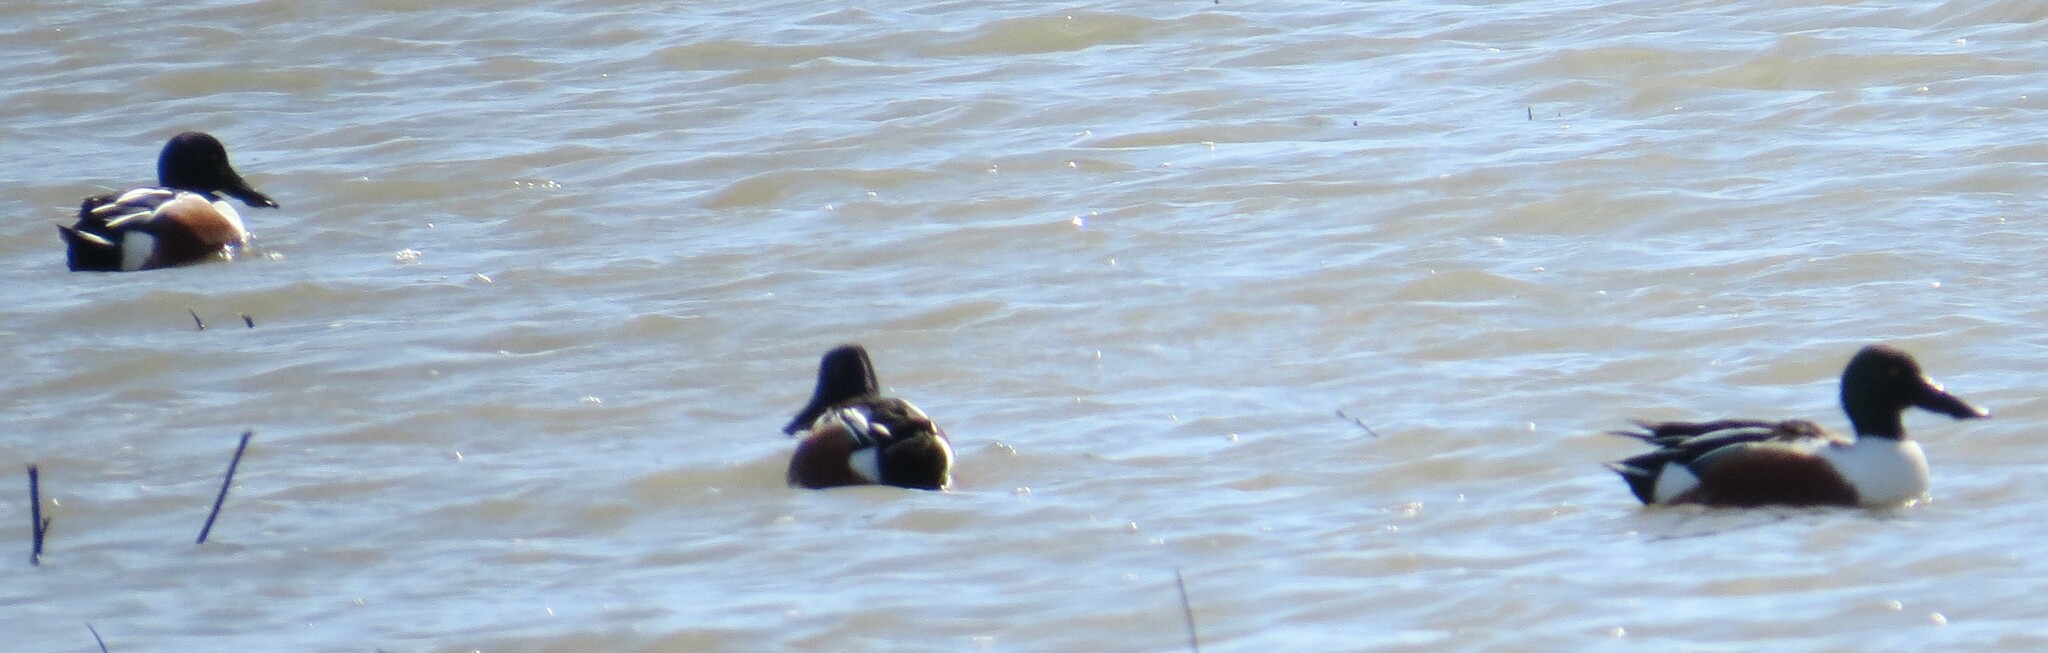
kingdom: Animalia
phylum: Chordata
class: Aves
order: Anseriformes
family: Anatidae
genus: Spatula
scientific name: Spatula clypeata
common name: Northern shoveler
